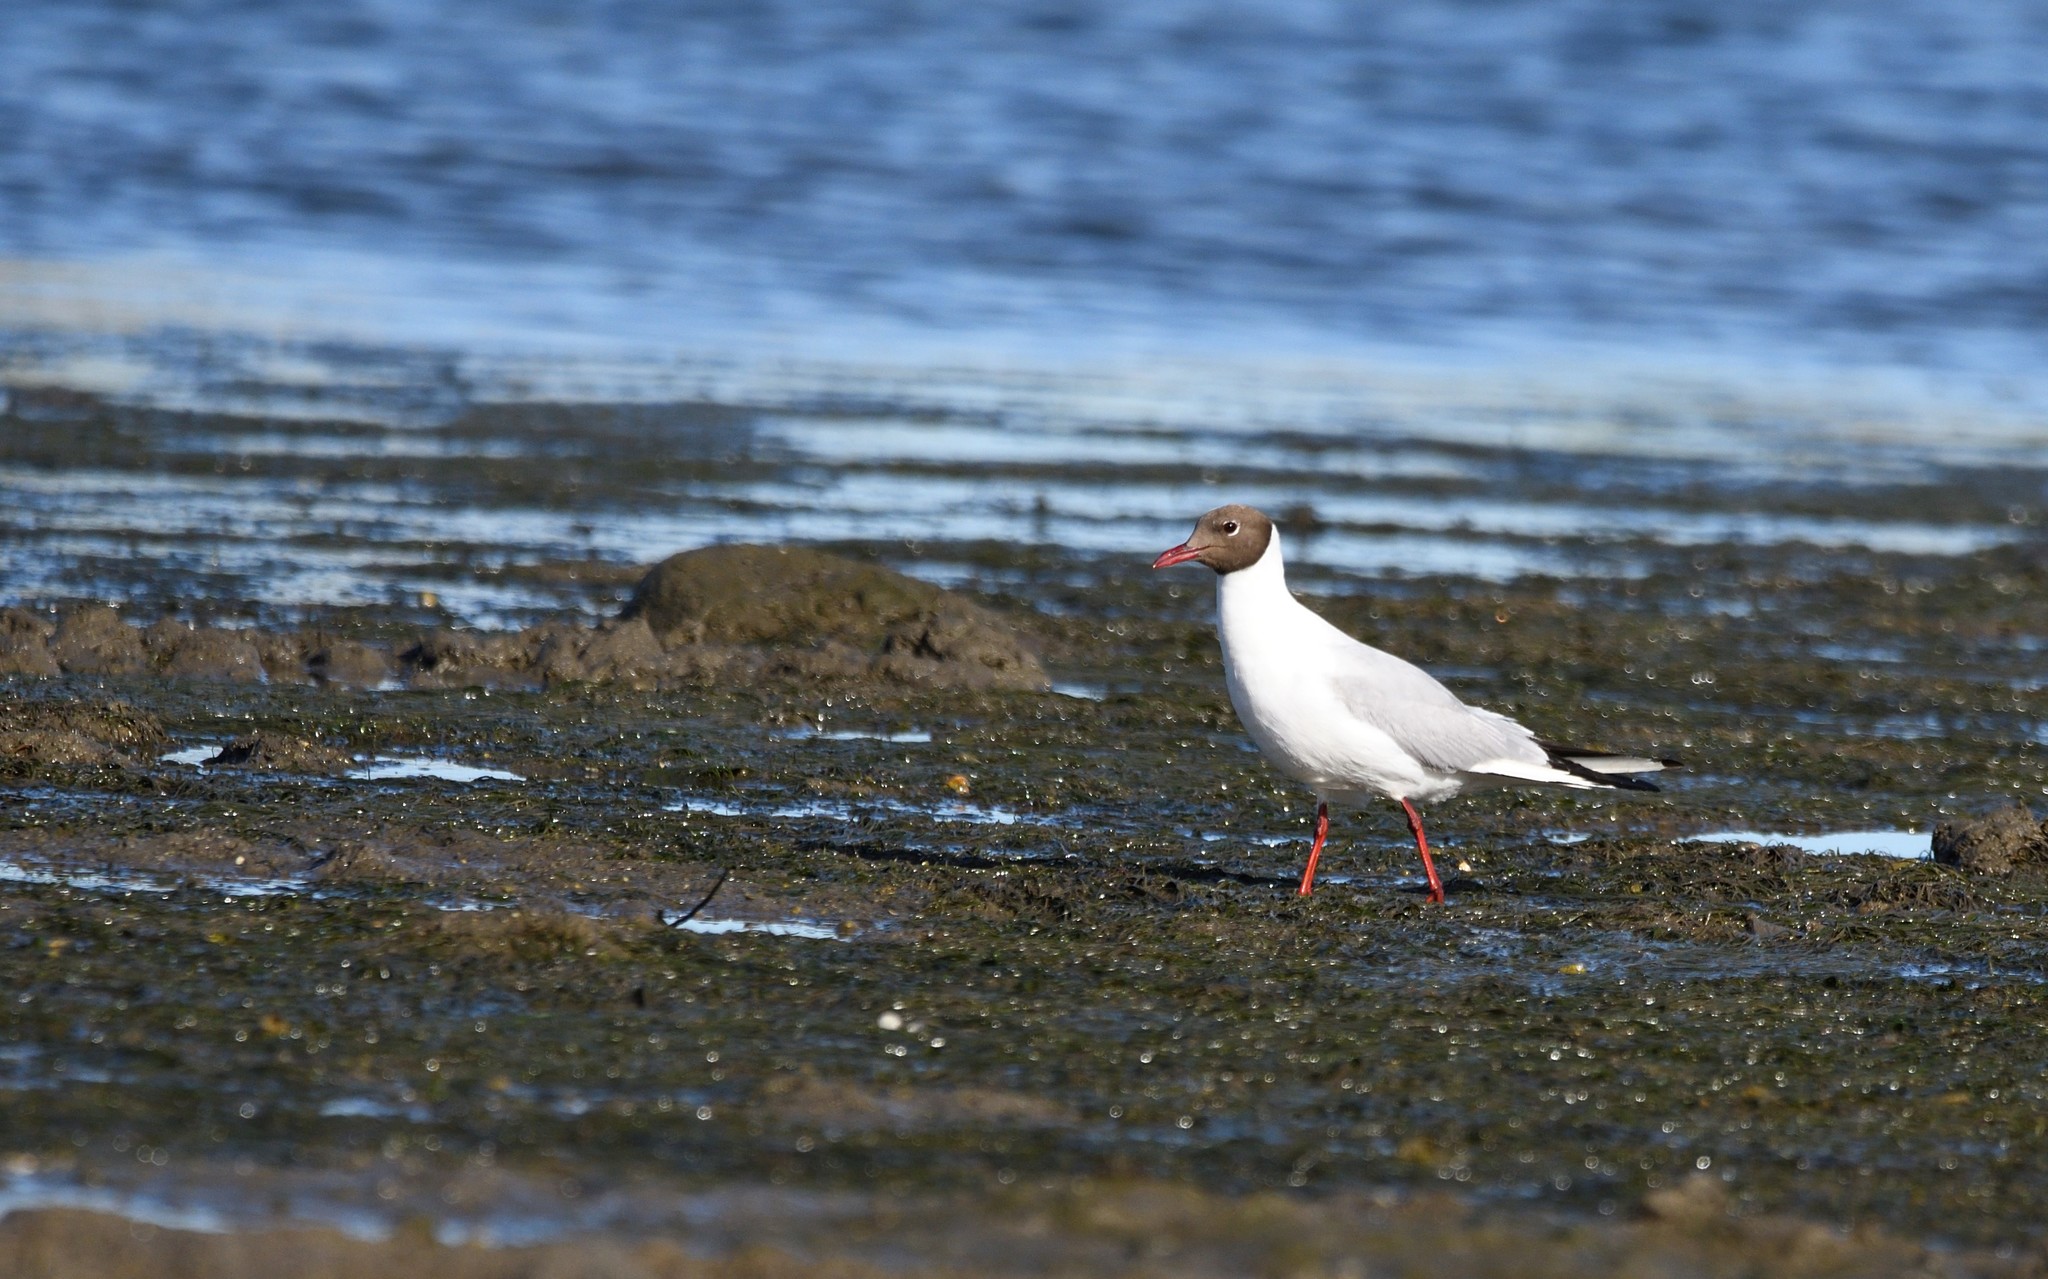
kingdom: Animalia
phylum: Chordata
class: Aves
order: Charadriiformes
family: Laridae
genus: Chroicocephalus
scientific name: Chroicocephalus ridibundus
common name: Black-headed gull
